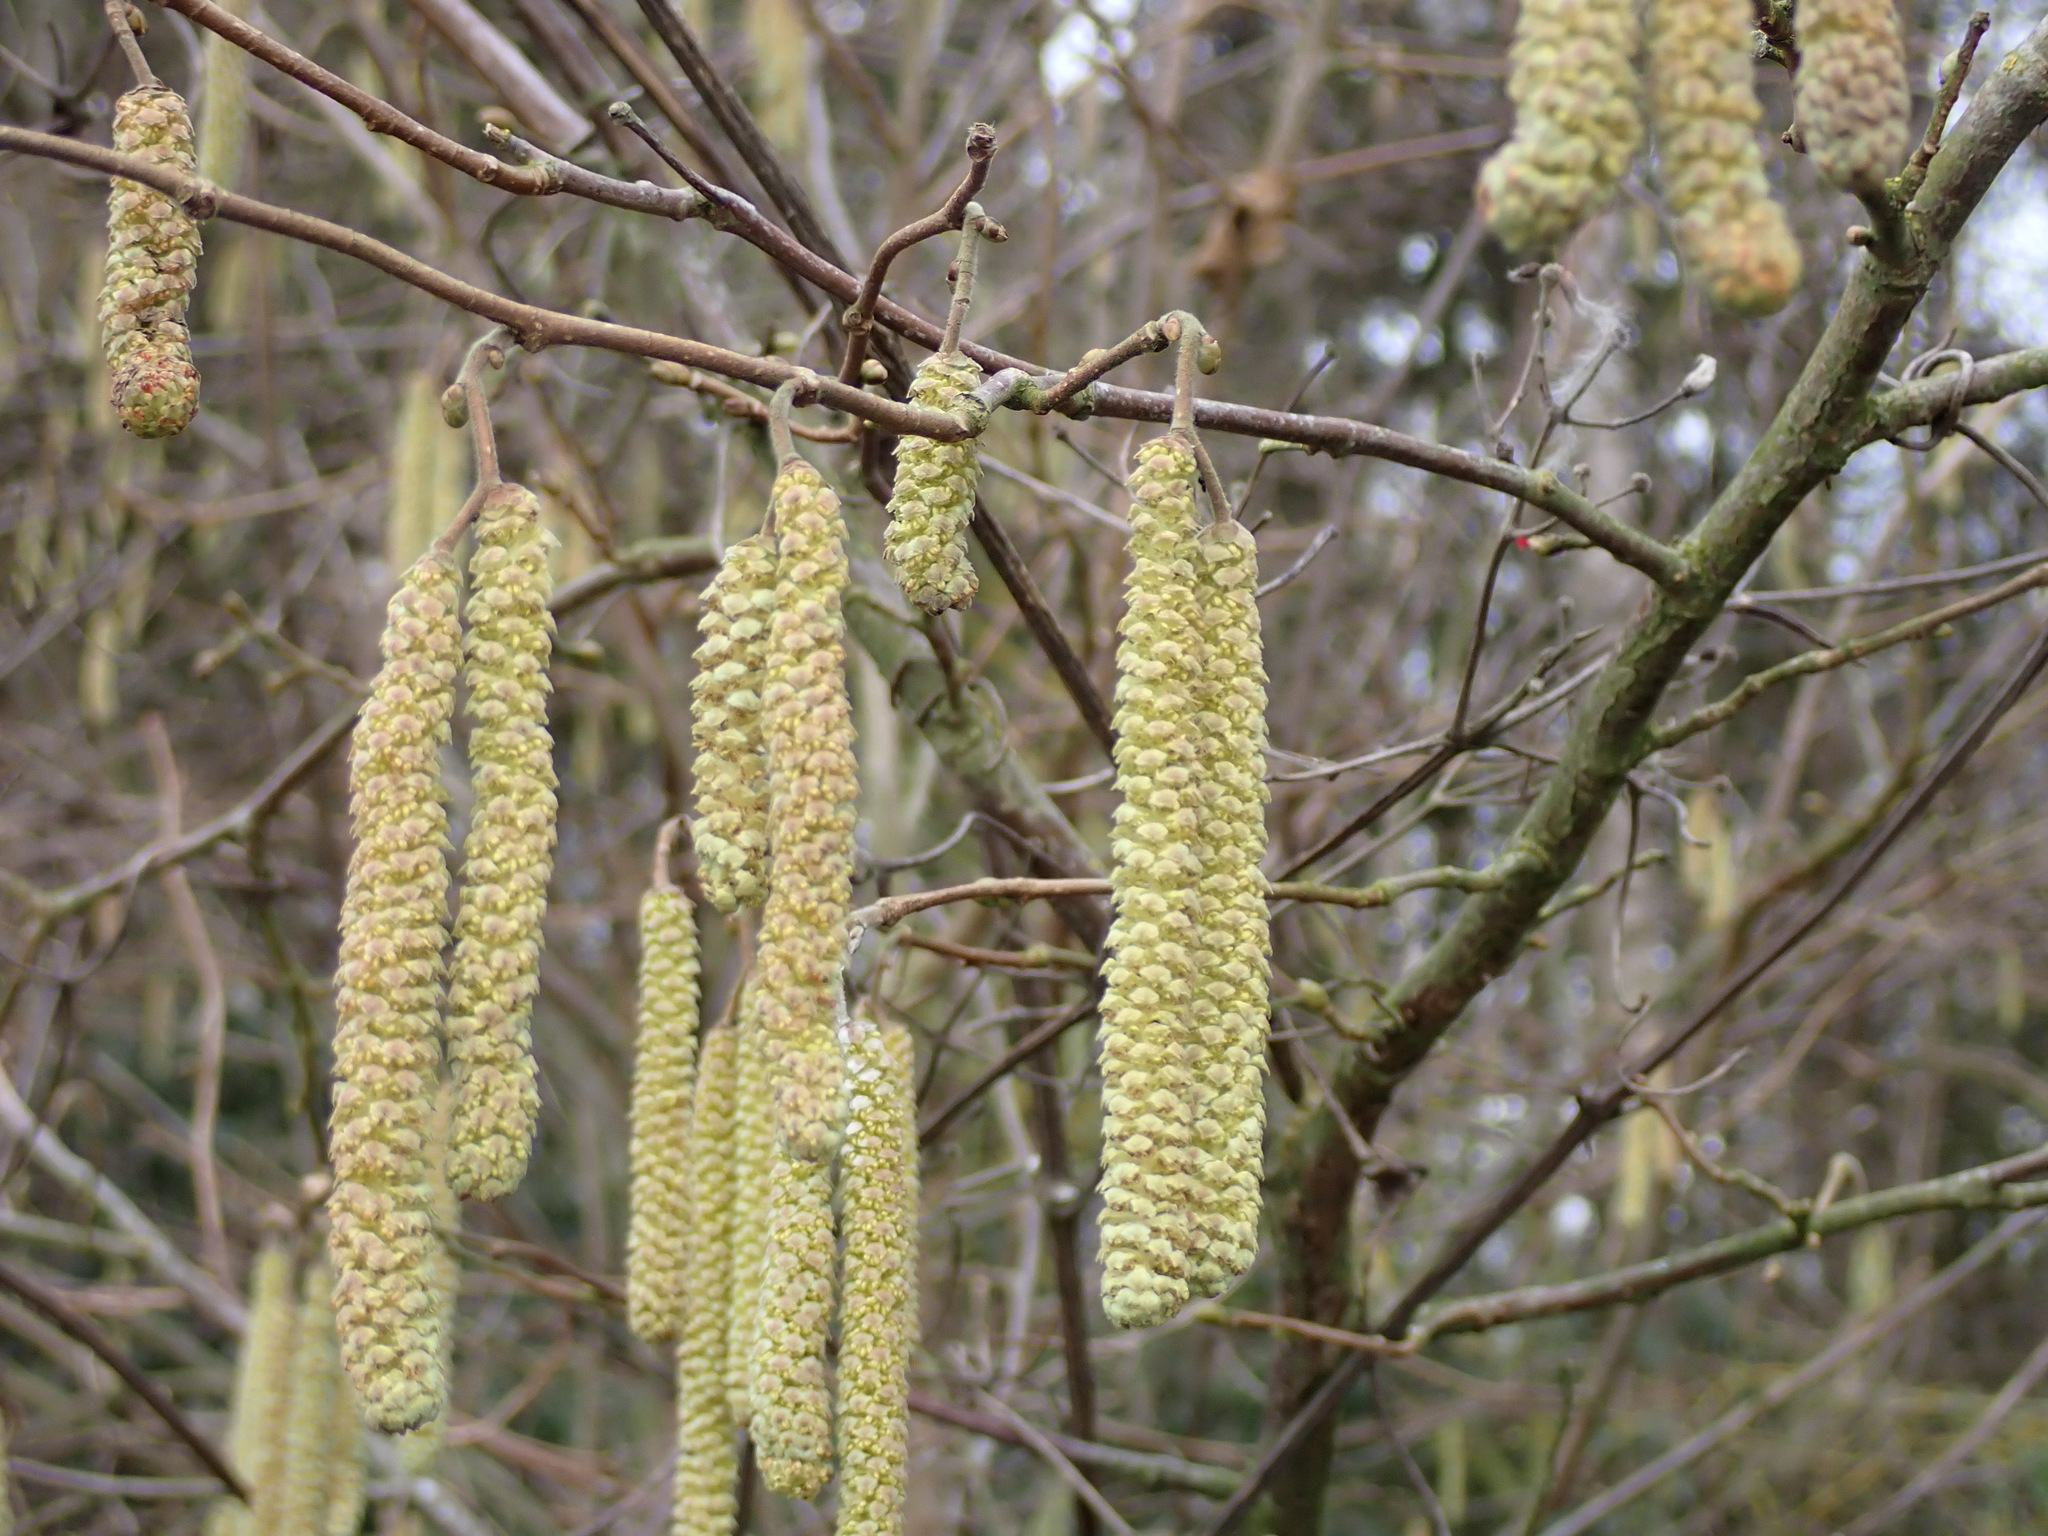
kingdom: Plantae
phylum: Tracheophyta
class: Magnoliopsida
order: Fagales
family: Betulaceae
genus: Corylus
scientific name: Corylus avellana
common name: European hazel
